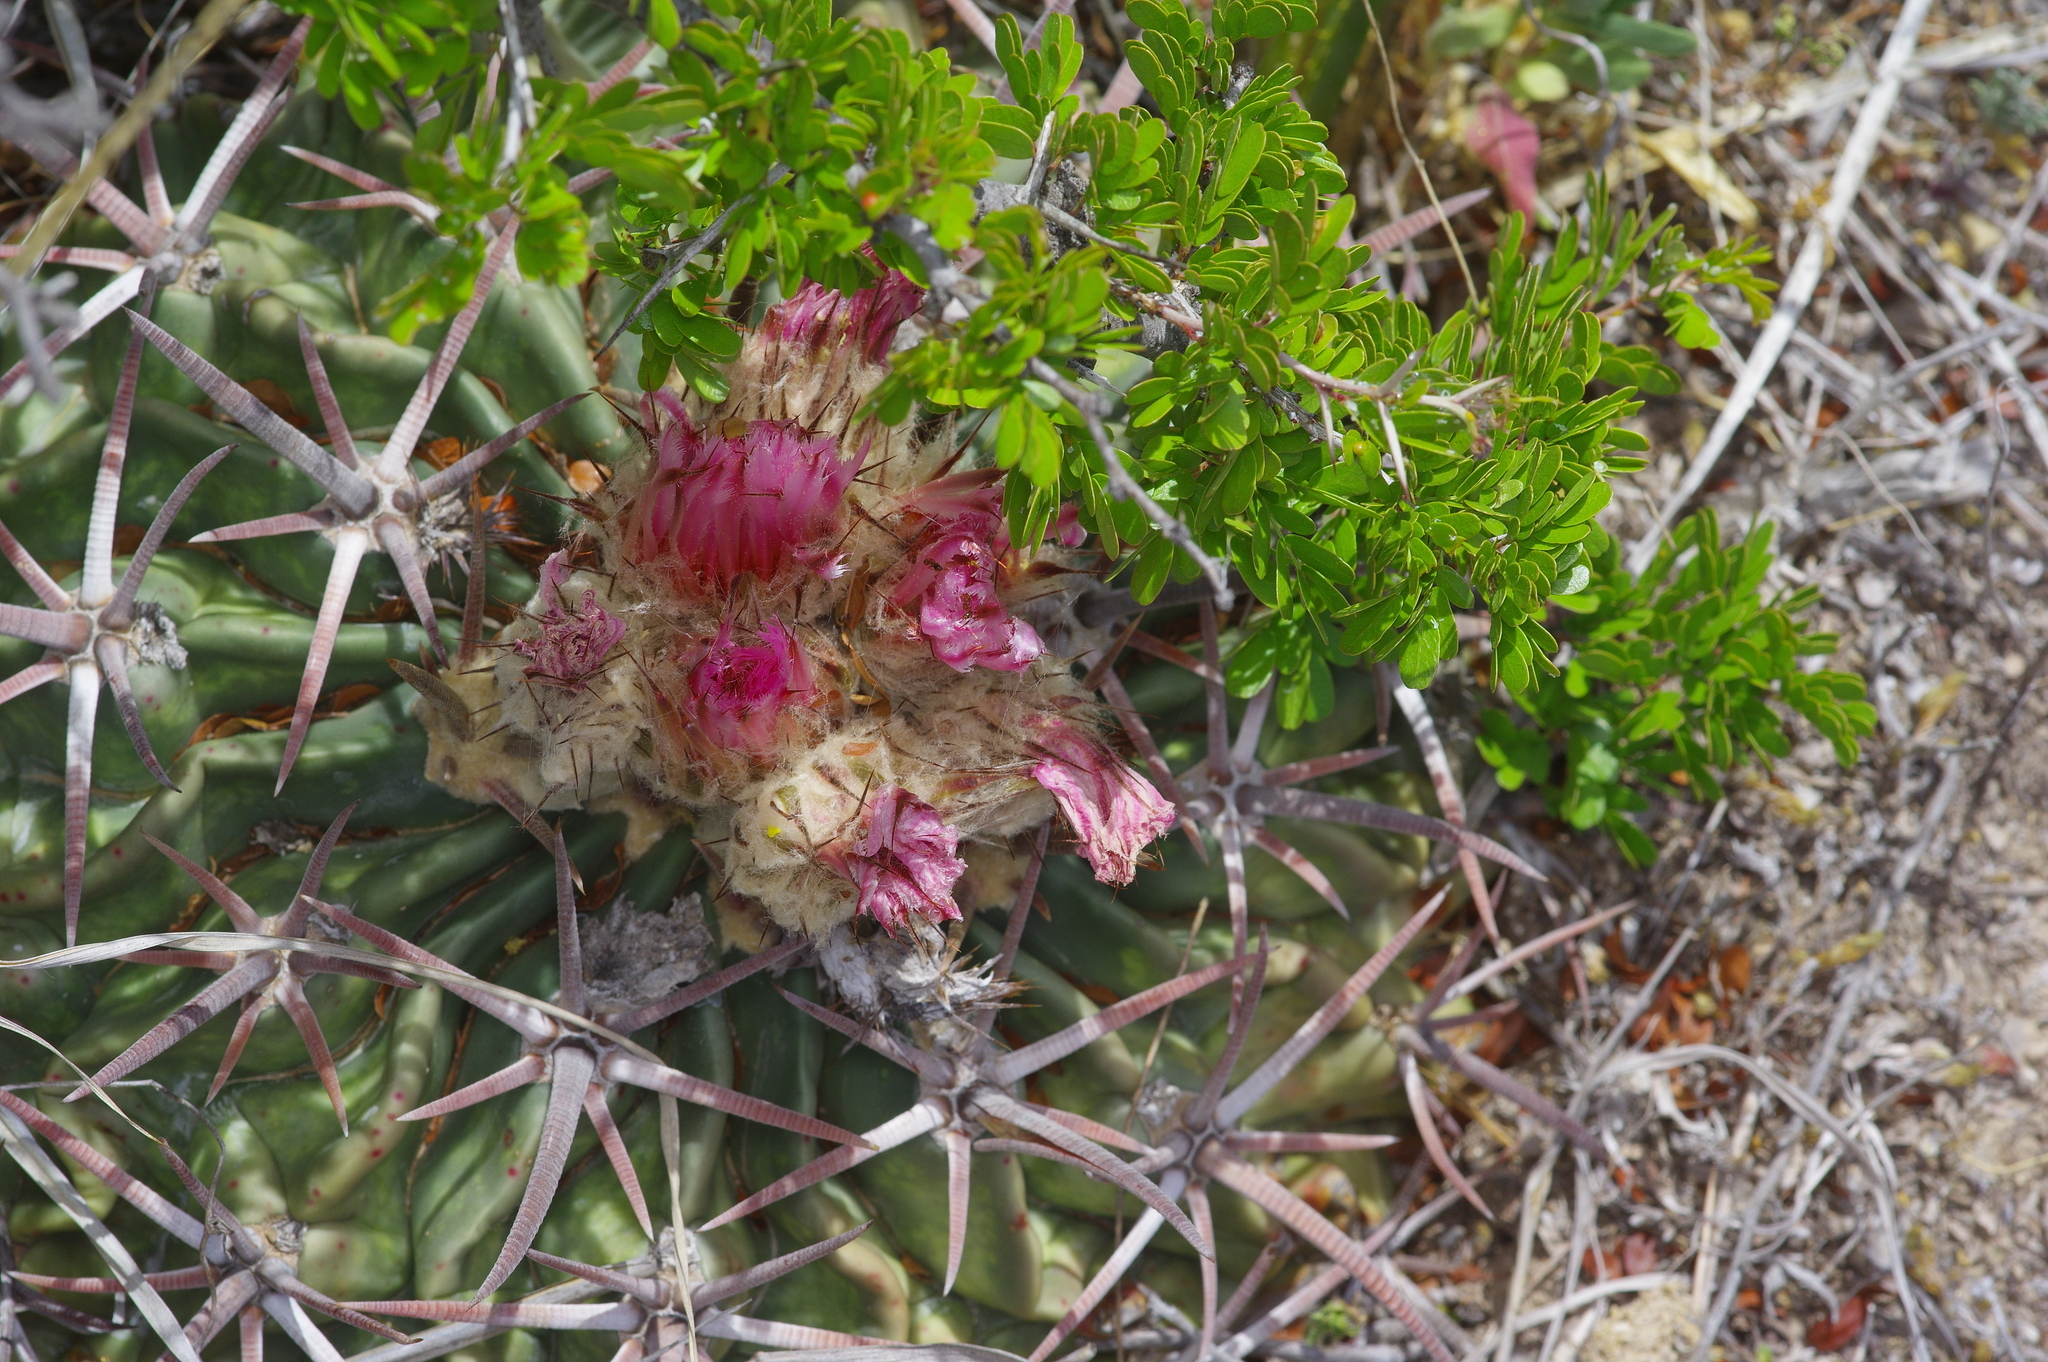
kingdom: Plantae
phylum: Tracheophyta
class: Magnoliopsida
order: Caryophyllales
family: Cactaceae
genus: Echinocactus
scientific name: Echinocactus texensis
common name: Devil's pincushion
